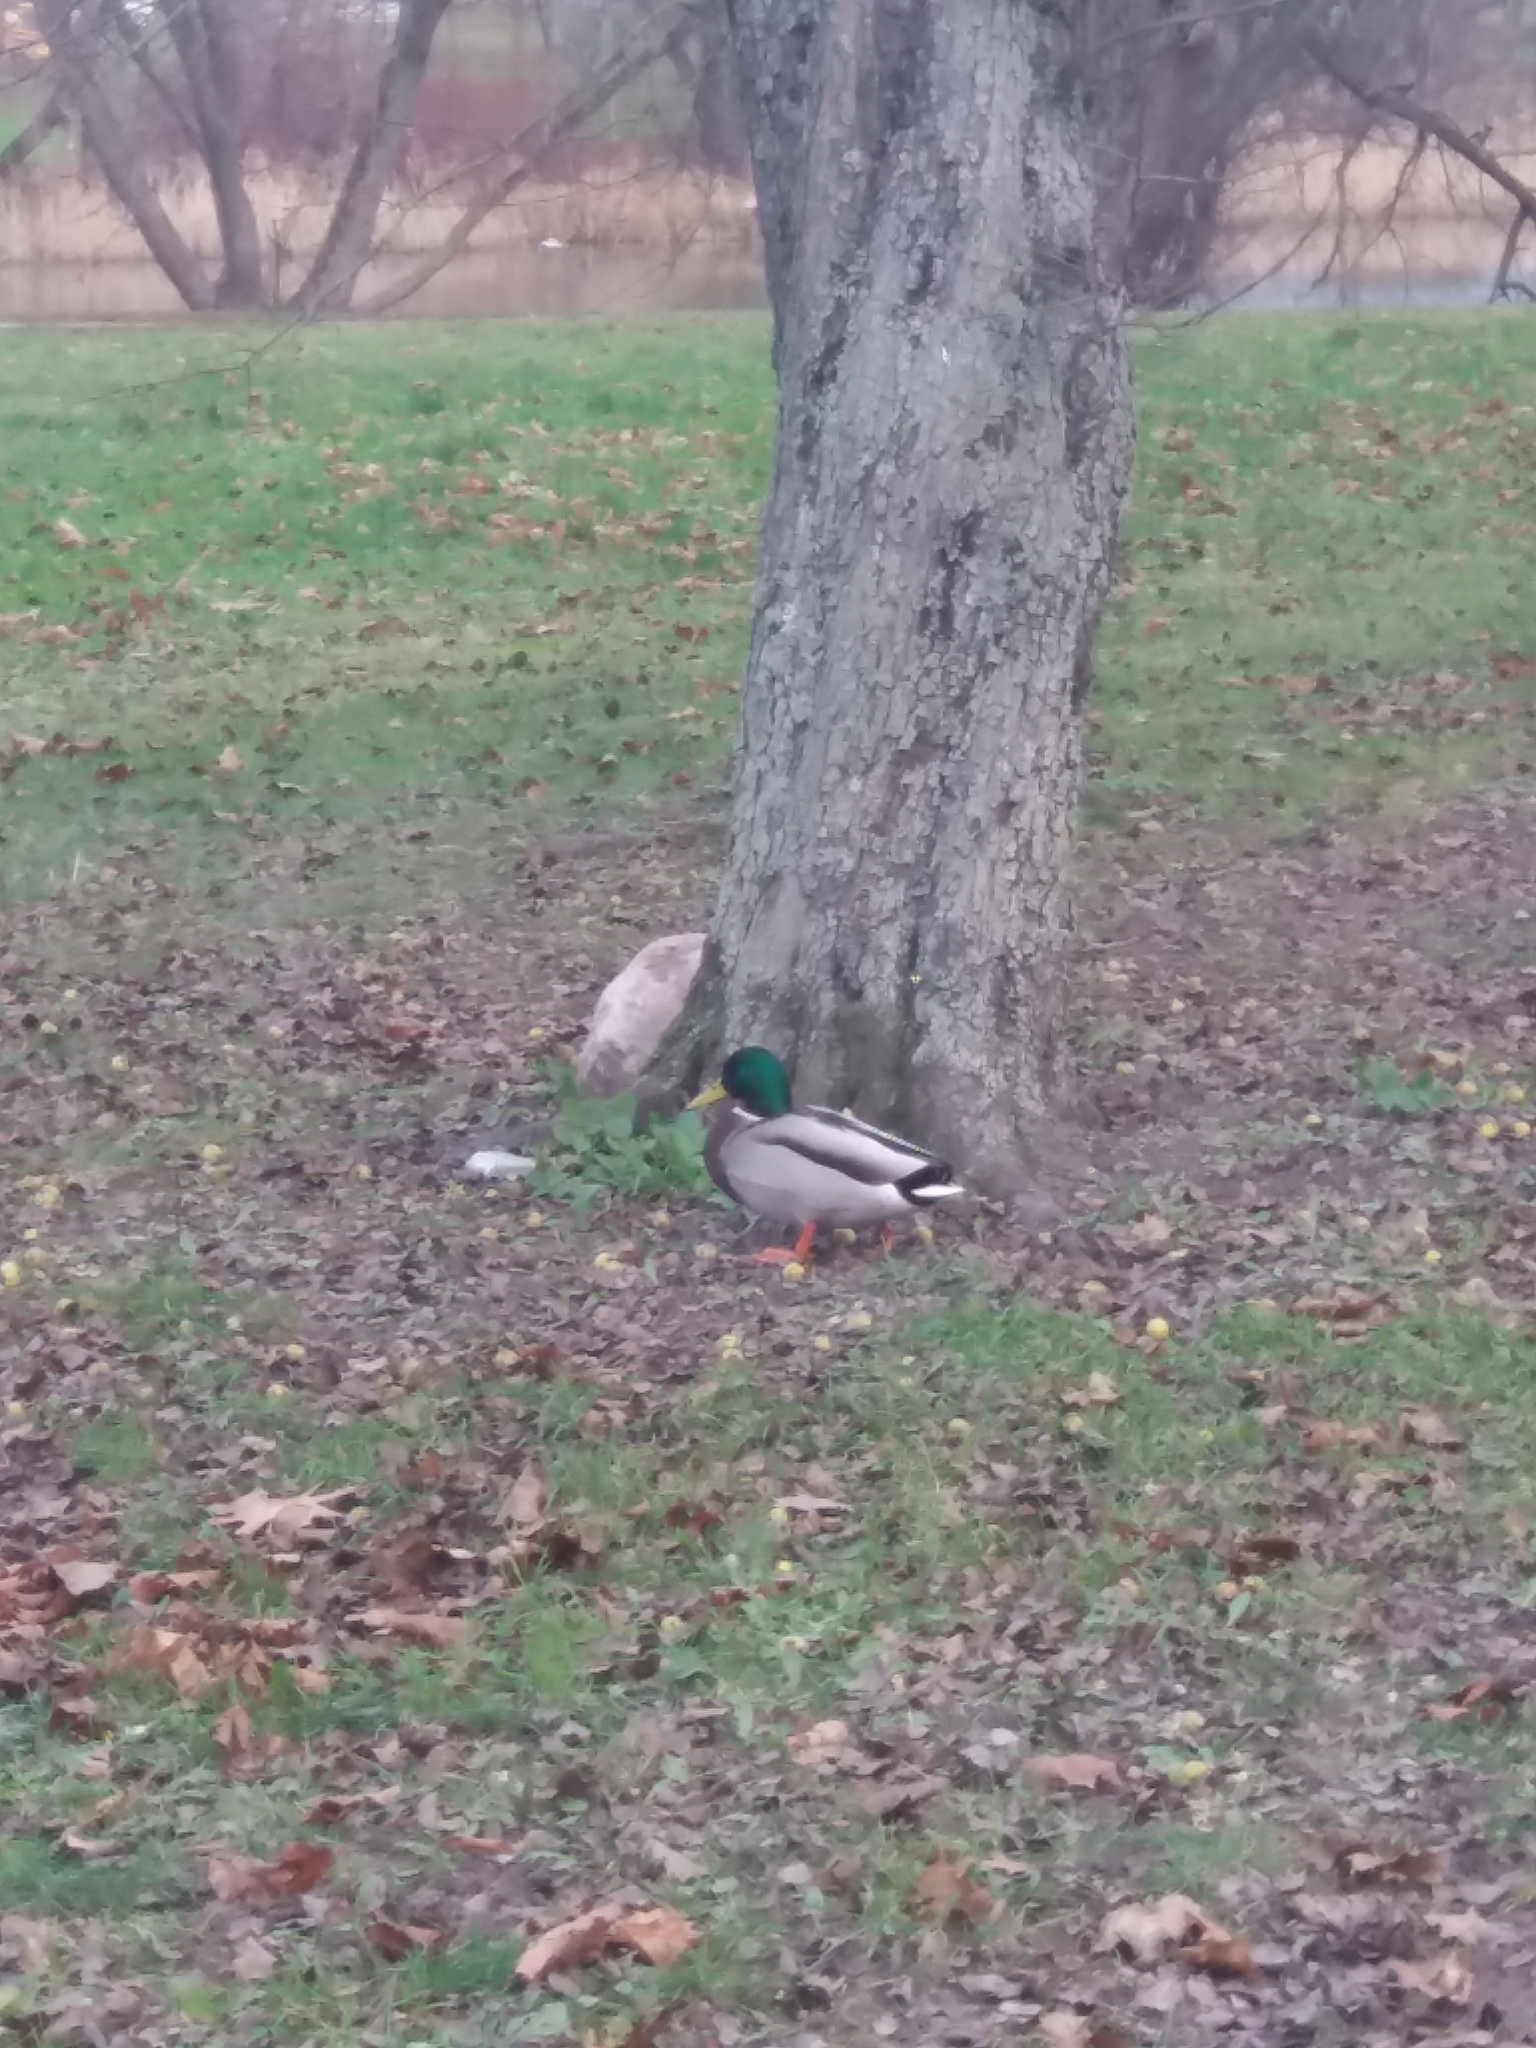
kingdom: Animalia
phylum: Chordata
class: Aves
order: Anseriformes
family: Anatidae
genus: Anas
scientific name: Anas platyrhynchos
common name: Mallard
